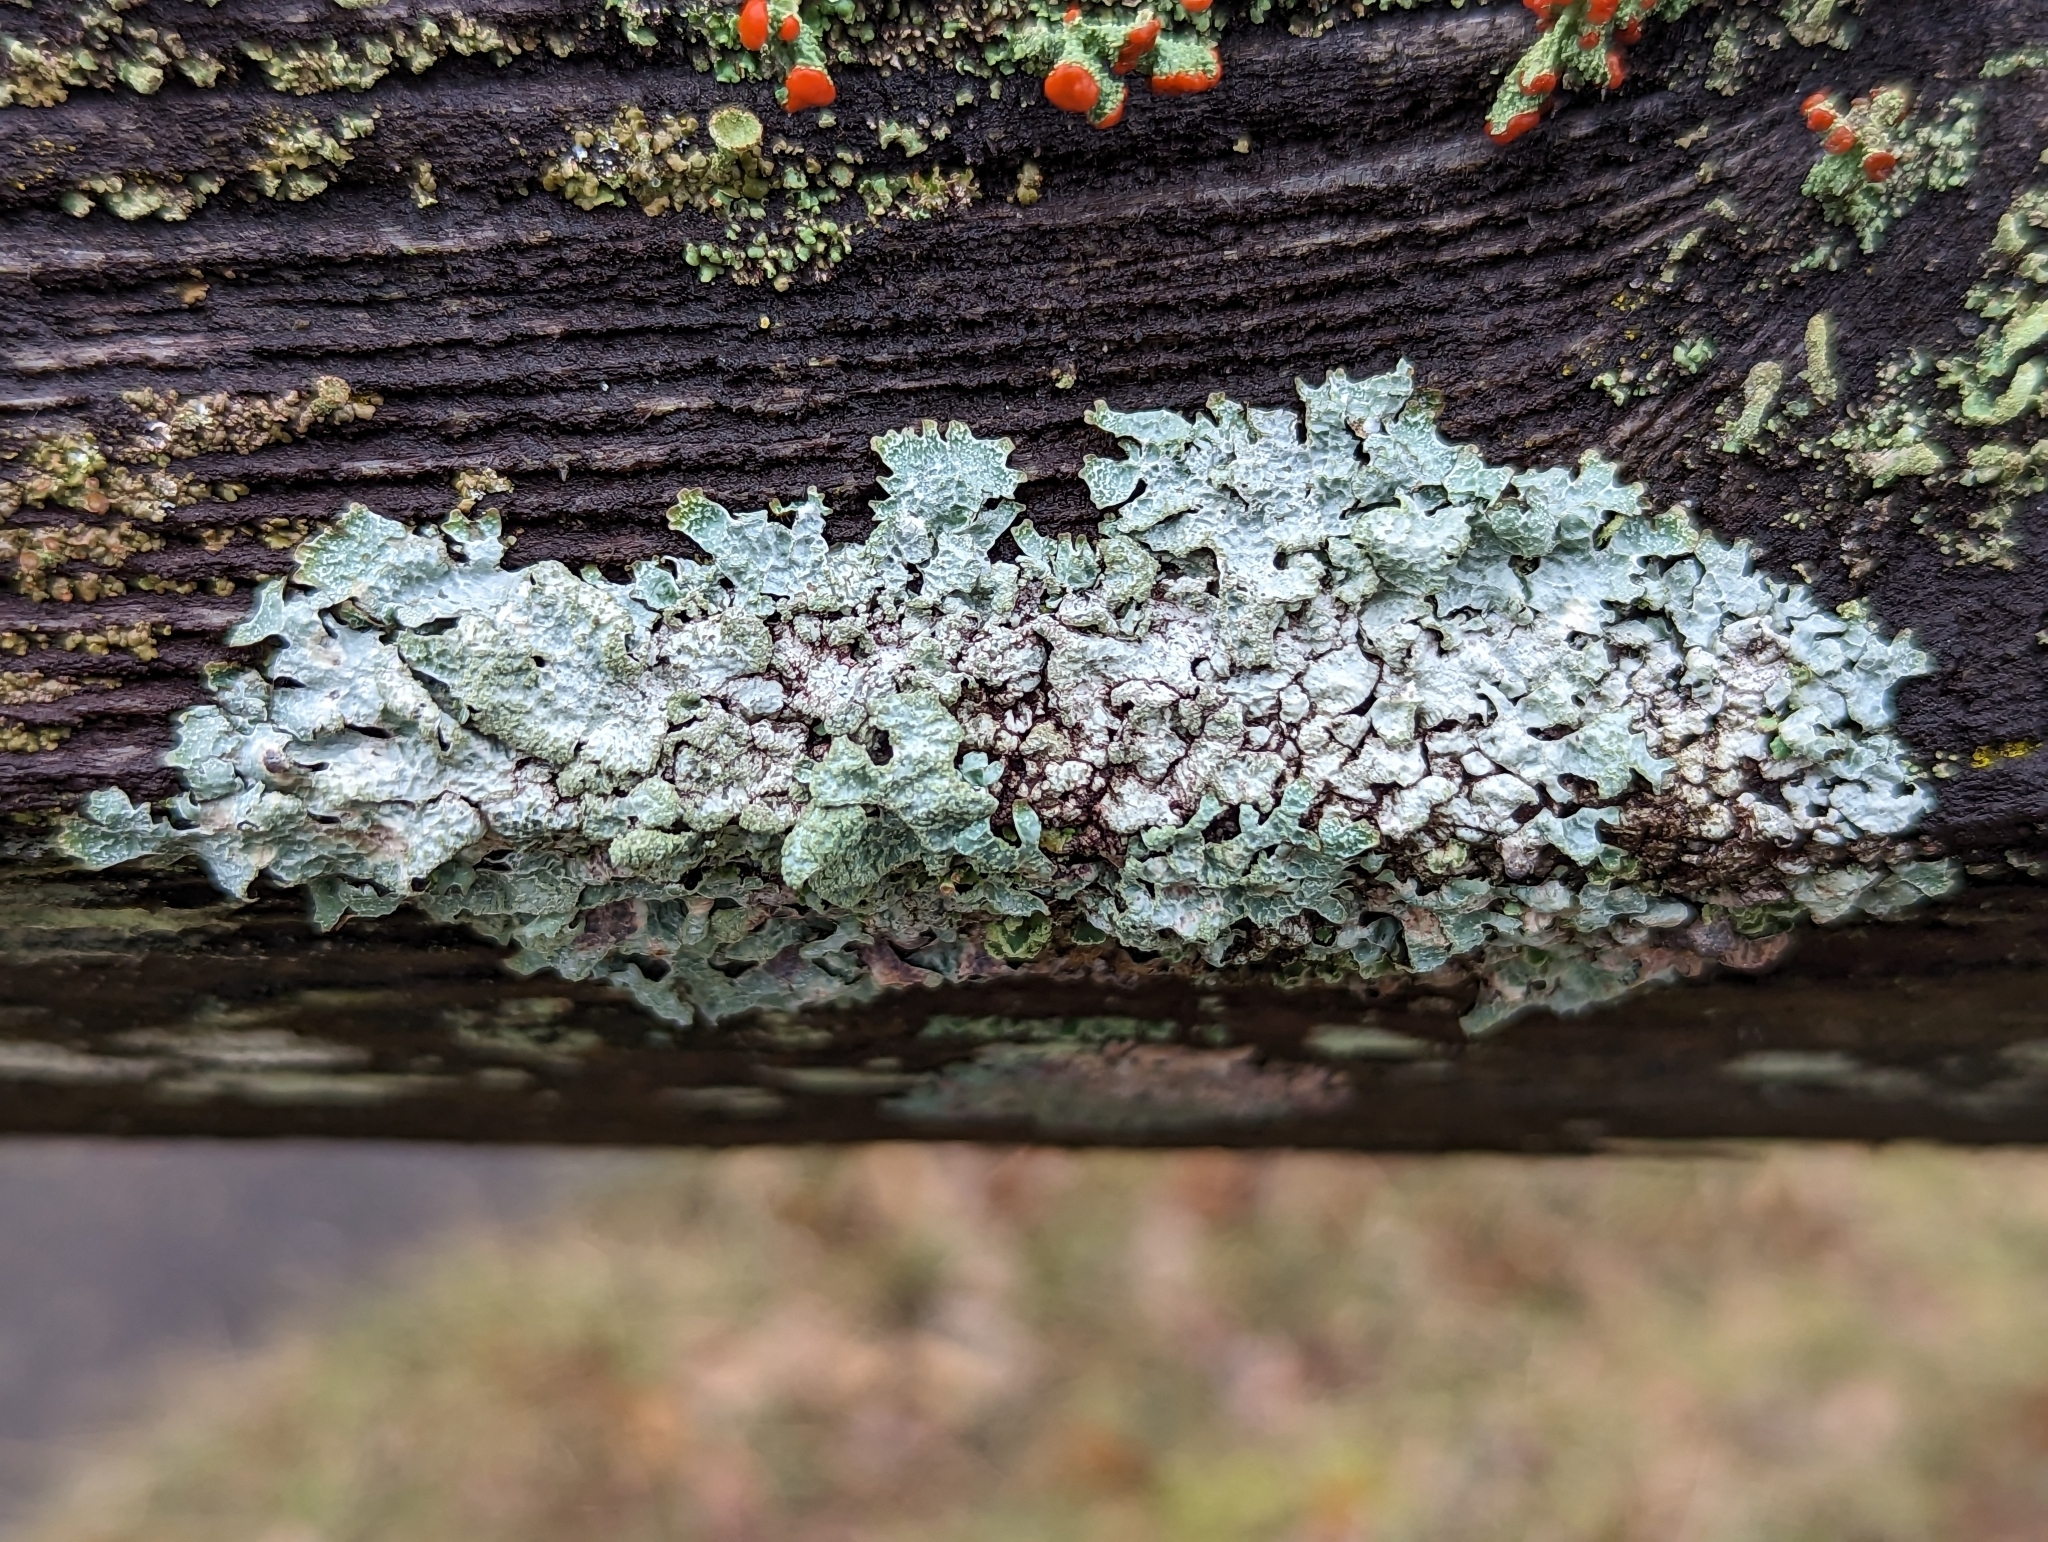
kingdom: Fungi
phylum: Ascomycota
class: Lecanoromycetes
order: Lecanorales
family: Parmeliaceae
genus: Parmelia
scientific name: Parmelia sulcata
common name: Netted shield lichen
